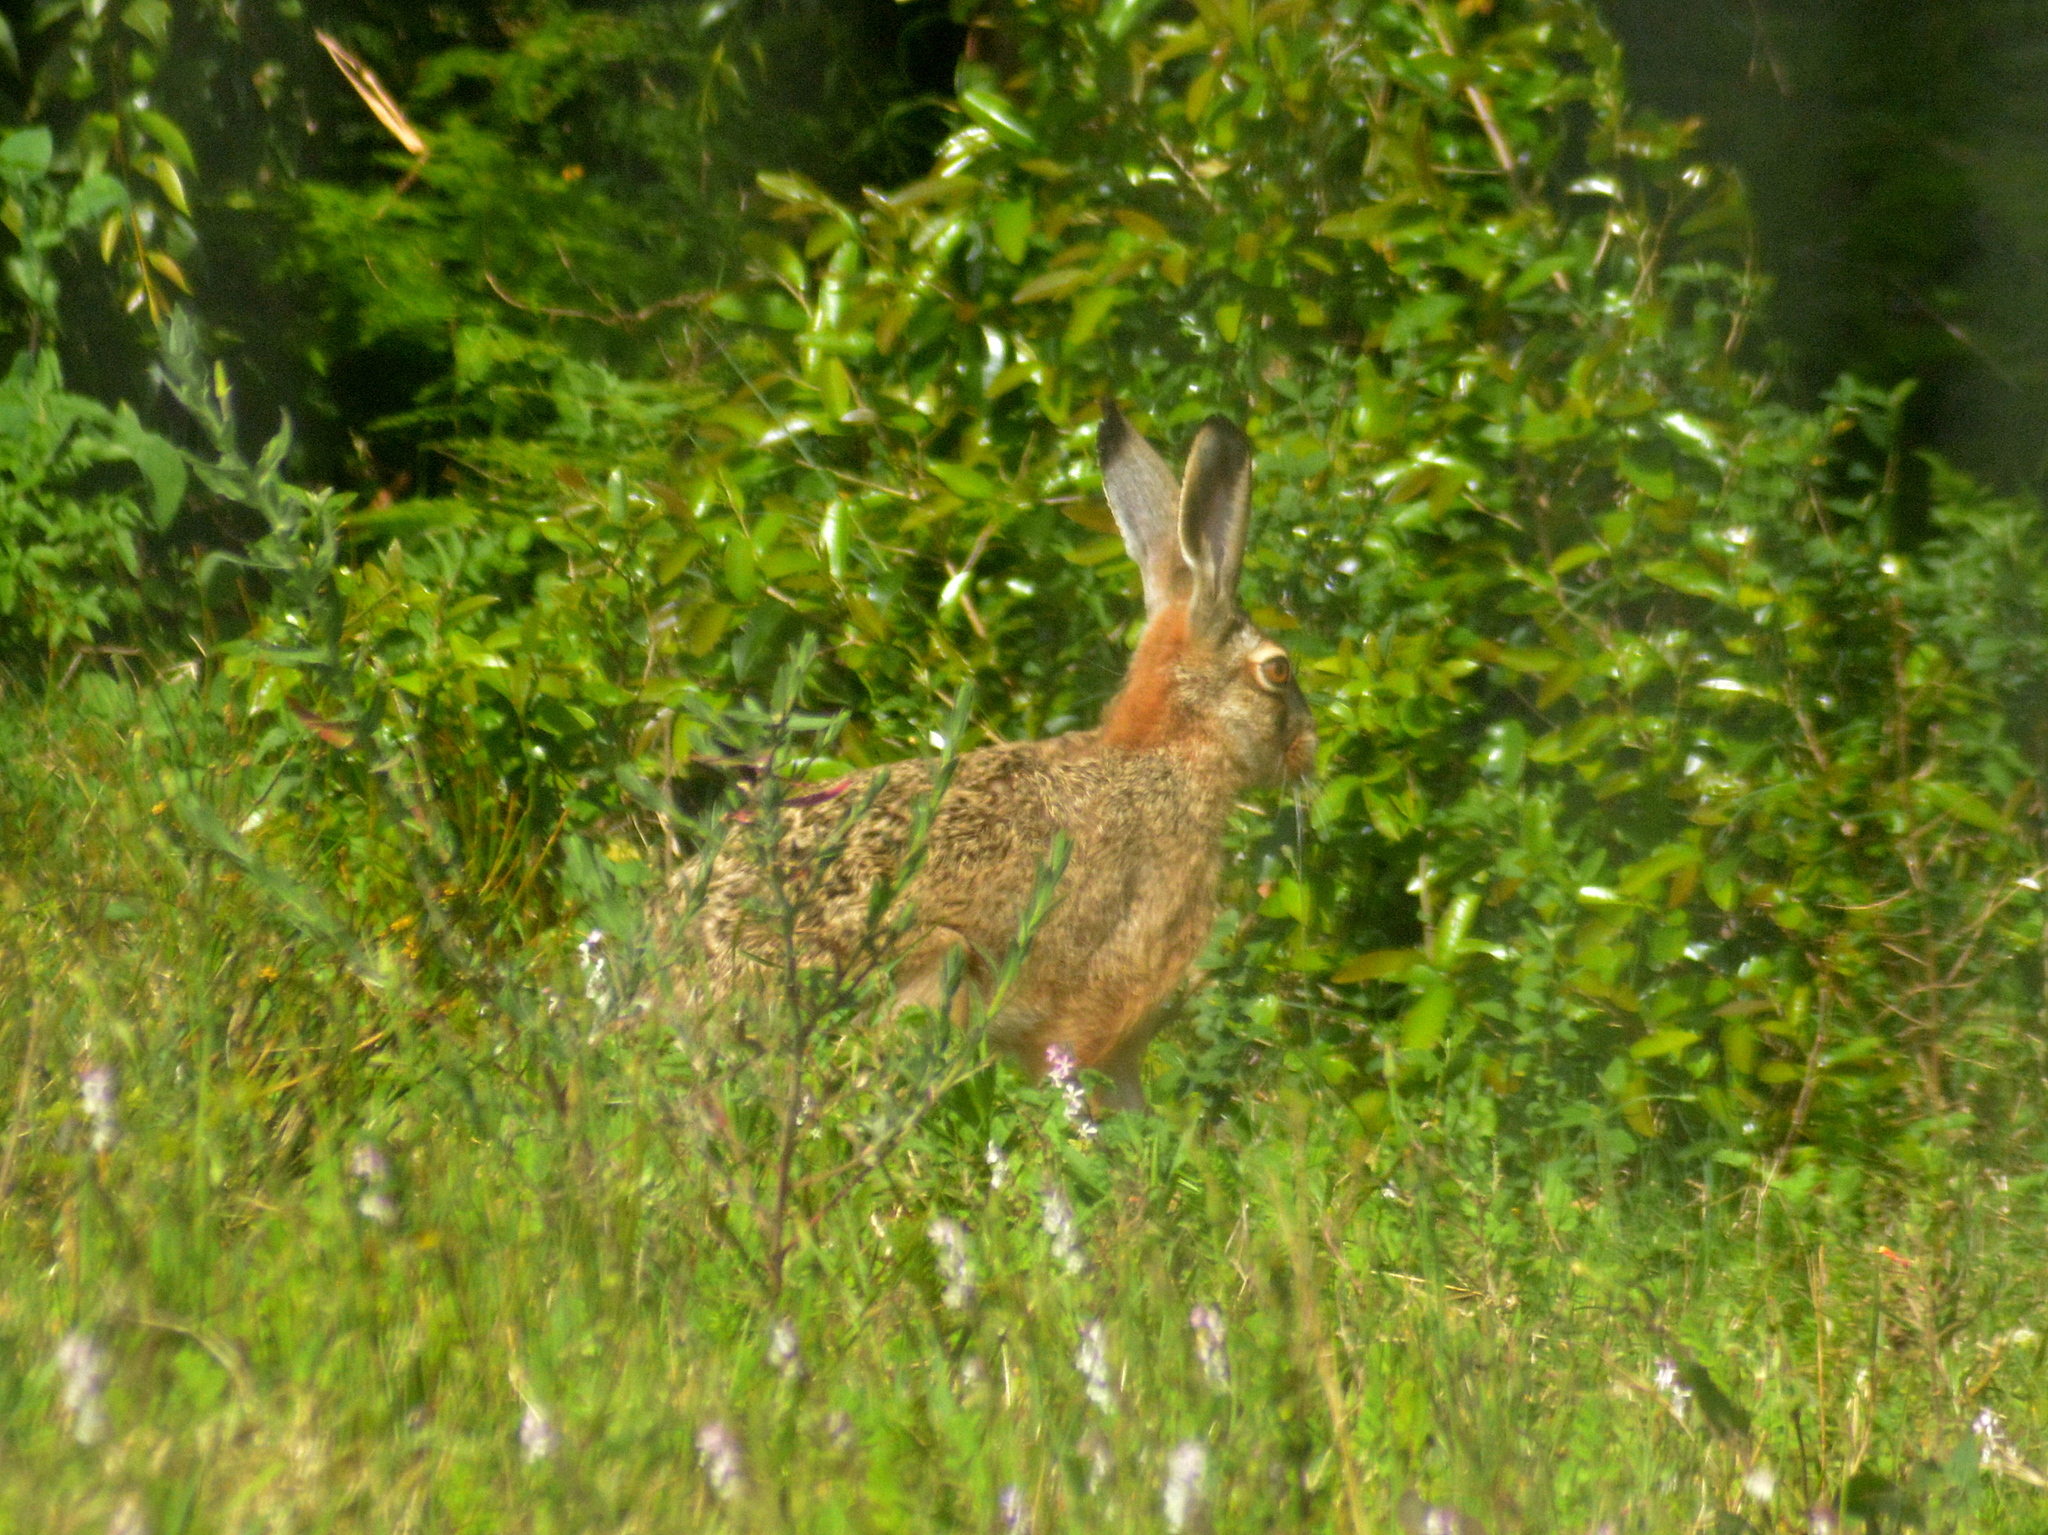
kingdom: Animalia
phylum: Chordata
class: Mammalia
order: Lagomorpha
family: Leporidae
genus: Lepus
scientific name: Lepus europaeus
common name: European hare
